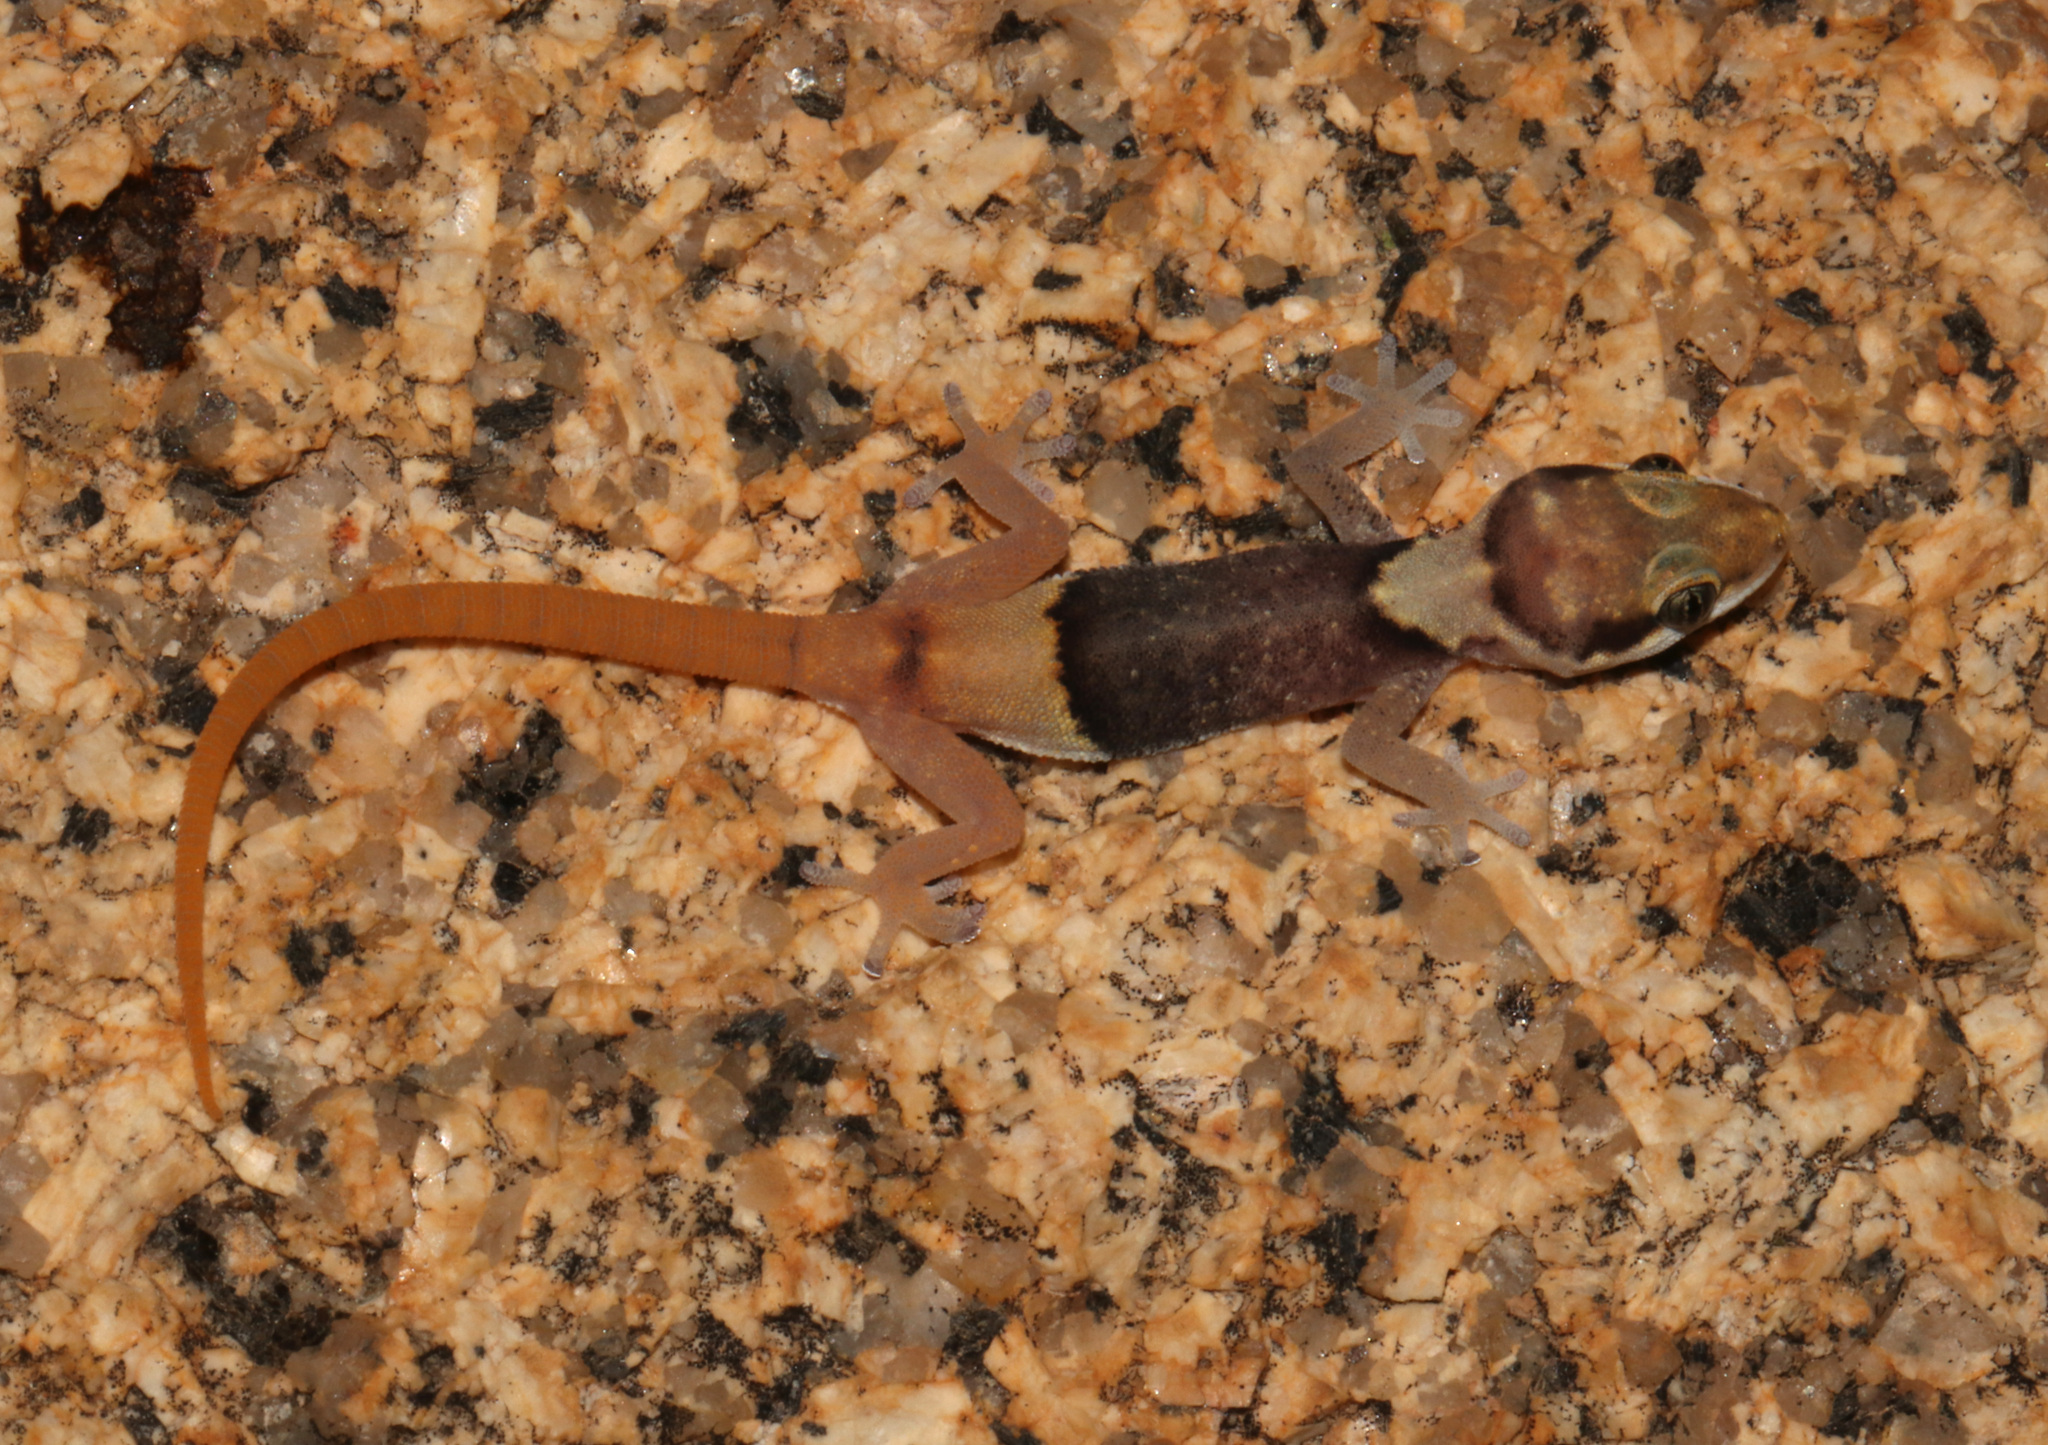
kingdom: Animalia
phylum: Chordata
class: Squamata
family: Gekkonidae
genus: Pachydactylus
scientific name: Pachydactylus bicolor
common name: Two-colored thick-toed gecko
